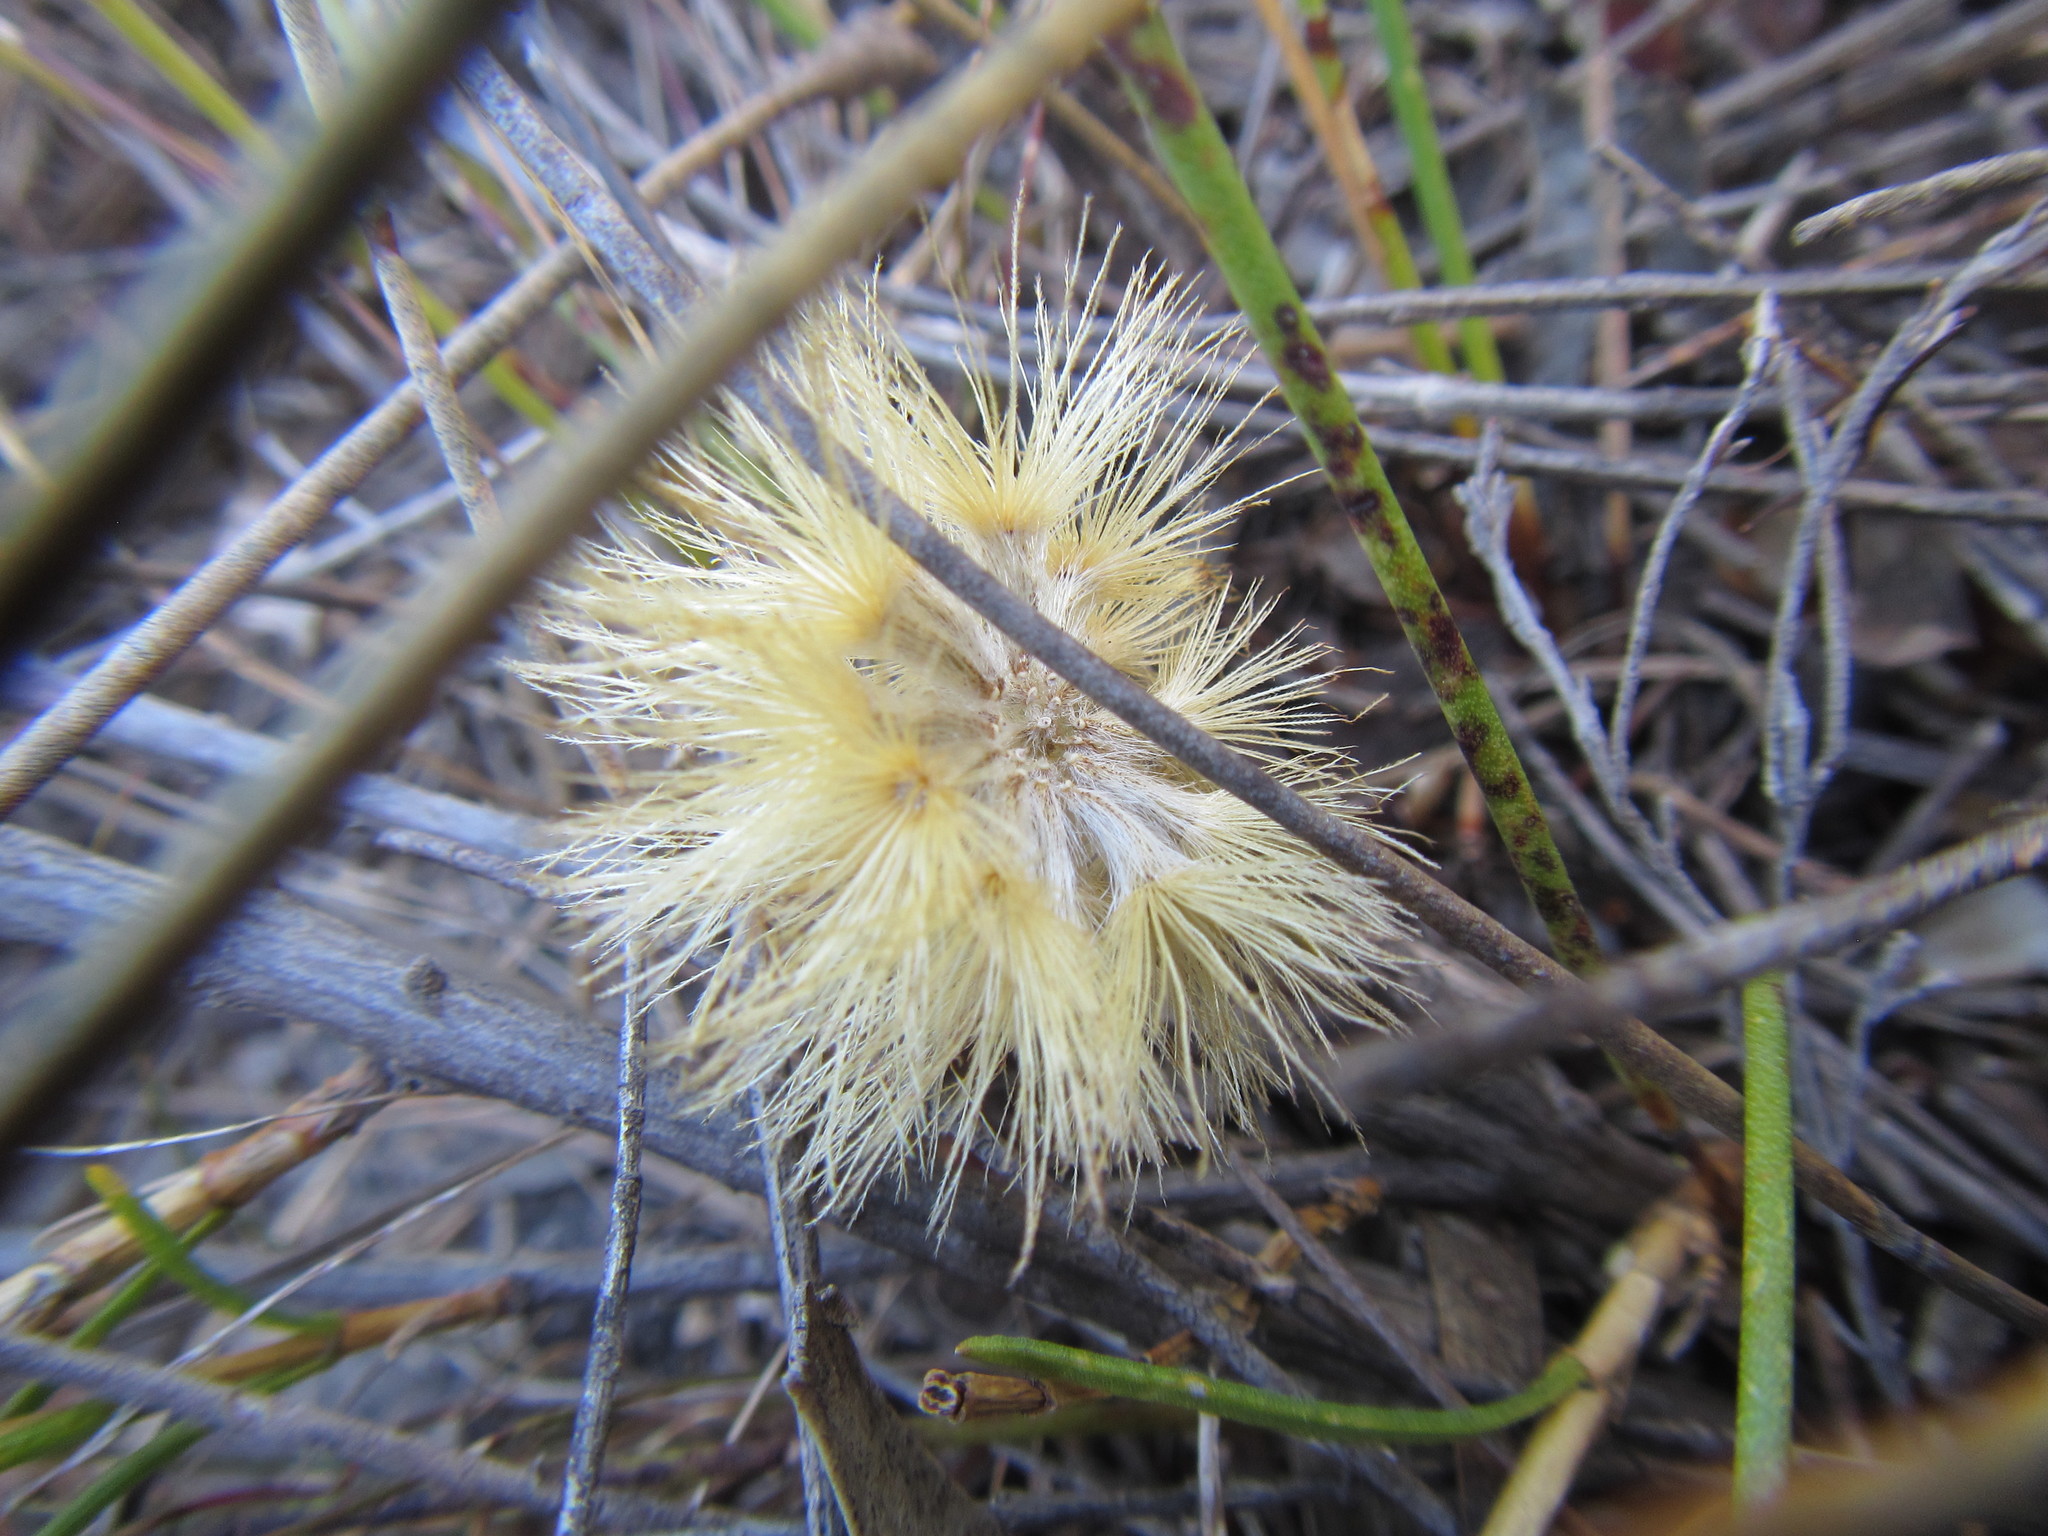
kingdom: Plantae
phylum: Tracheophyta
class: Magnoliopsida
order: Asterales
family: Asteraceae
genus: Pteronia
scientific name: Pteronia tenuifolia
